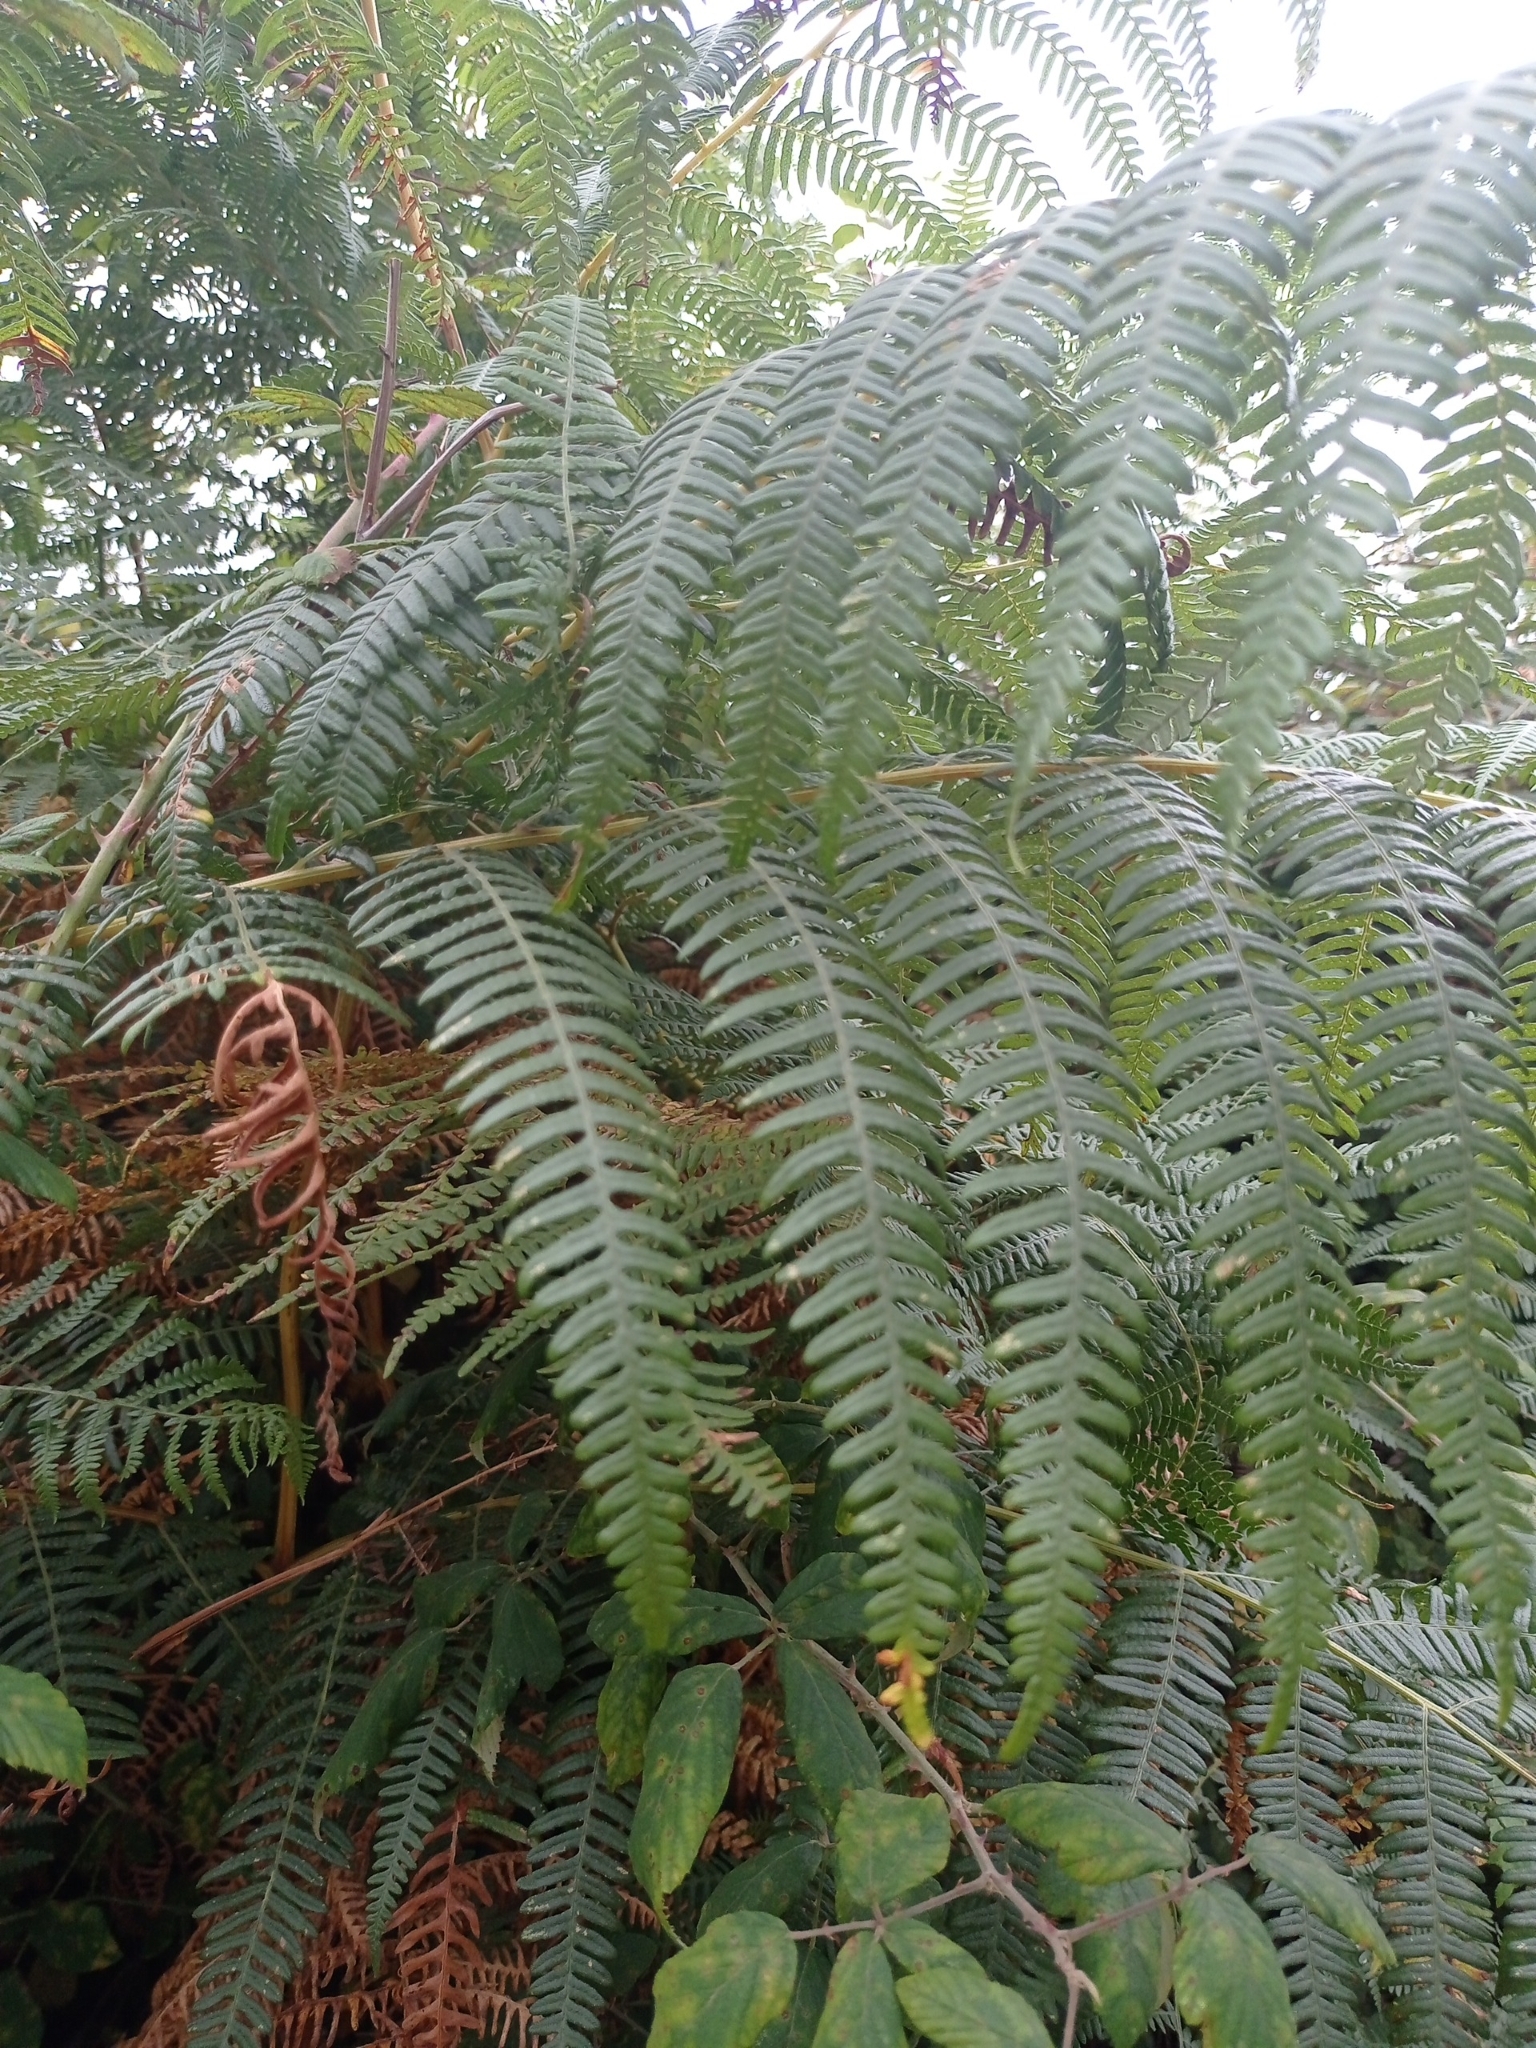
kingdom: Plantae
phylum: Tracheophyta
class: Polypodiopsida
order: Polypodiales
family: Dennstaedtiaceae
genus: Pteridium
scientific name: Pteridium aquilinum
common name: Bracken
